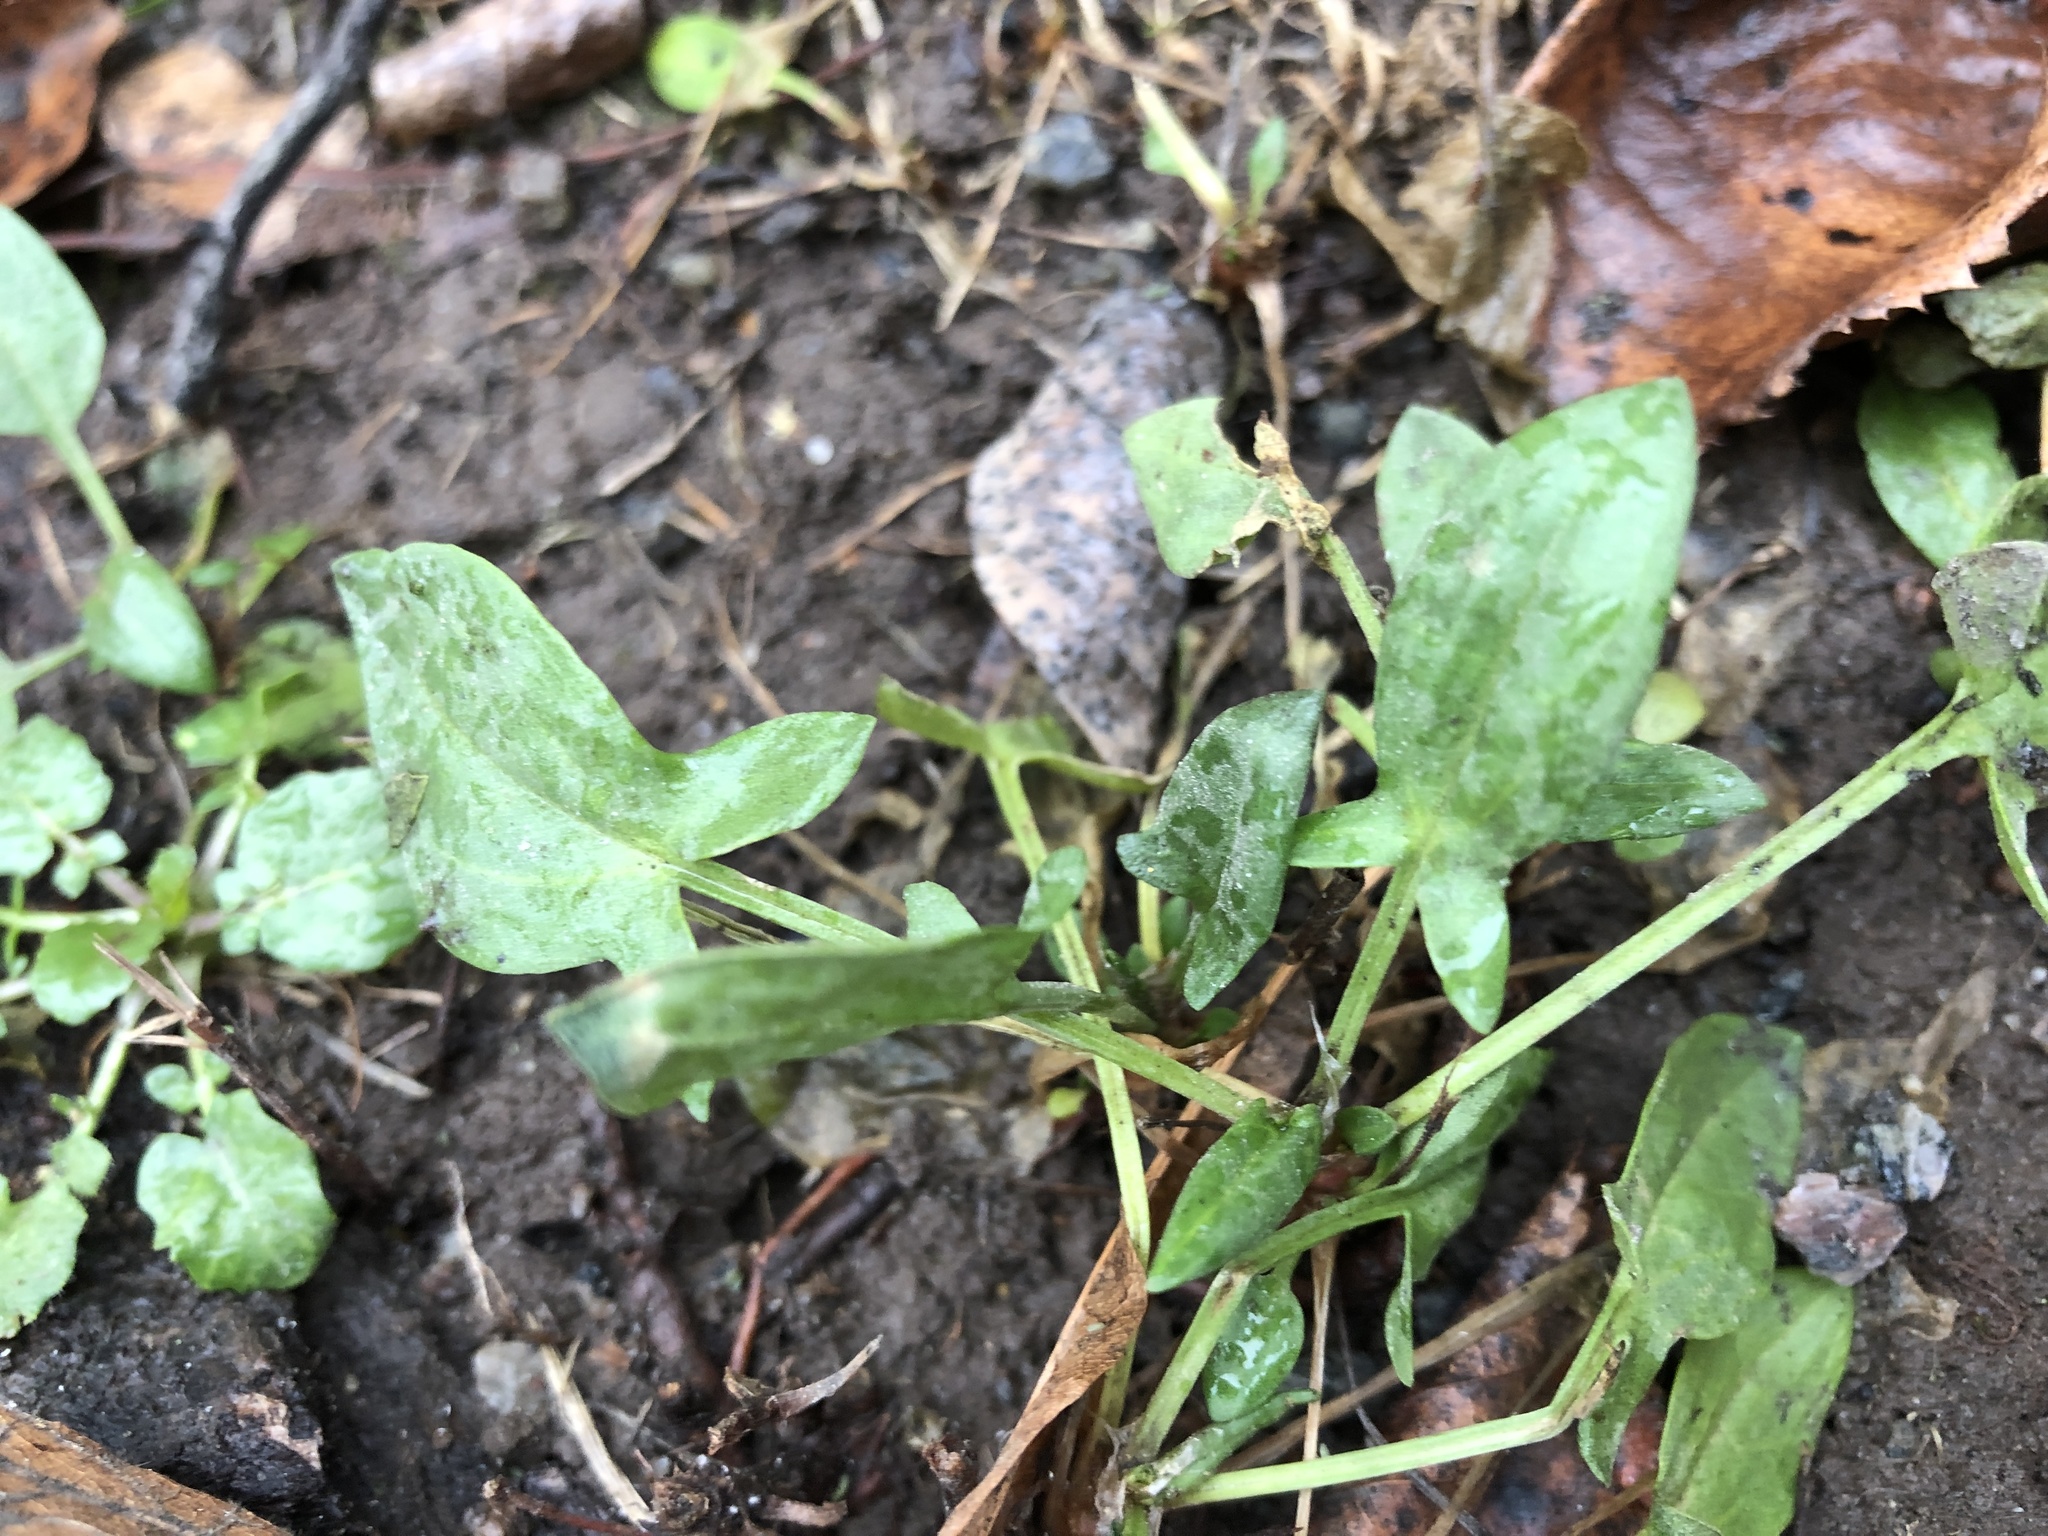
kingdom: Plantae
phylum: Tracheophyta
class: Magnoliopsida
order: Caryophyllales
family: Polygonaceae
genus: Rumex
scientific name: Rumex acetosella
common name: Common sheep sorrel
